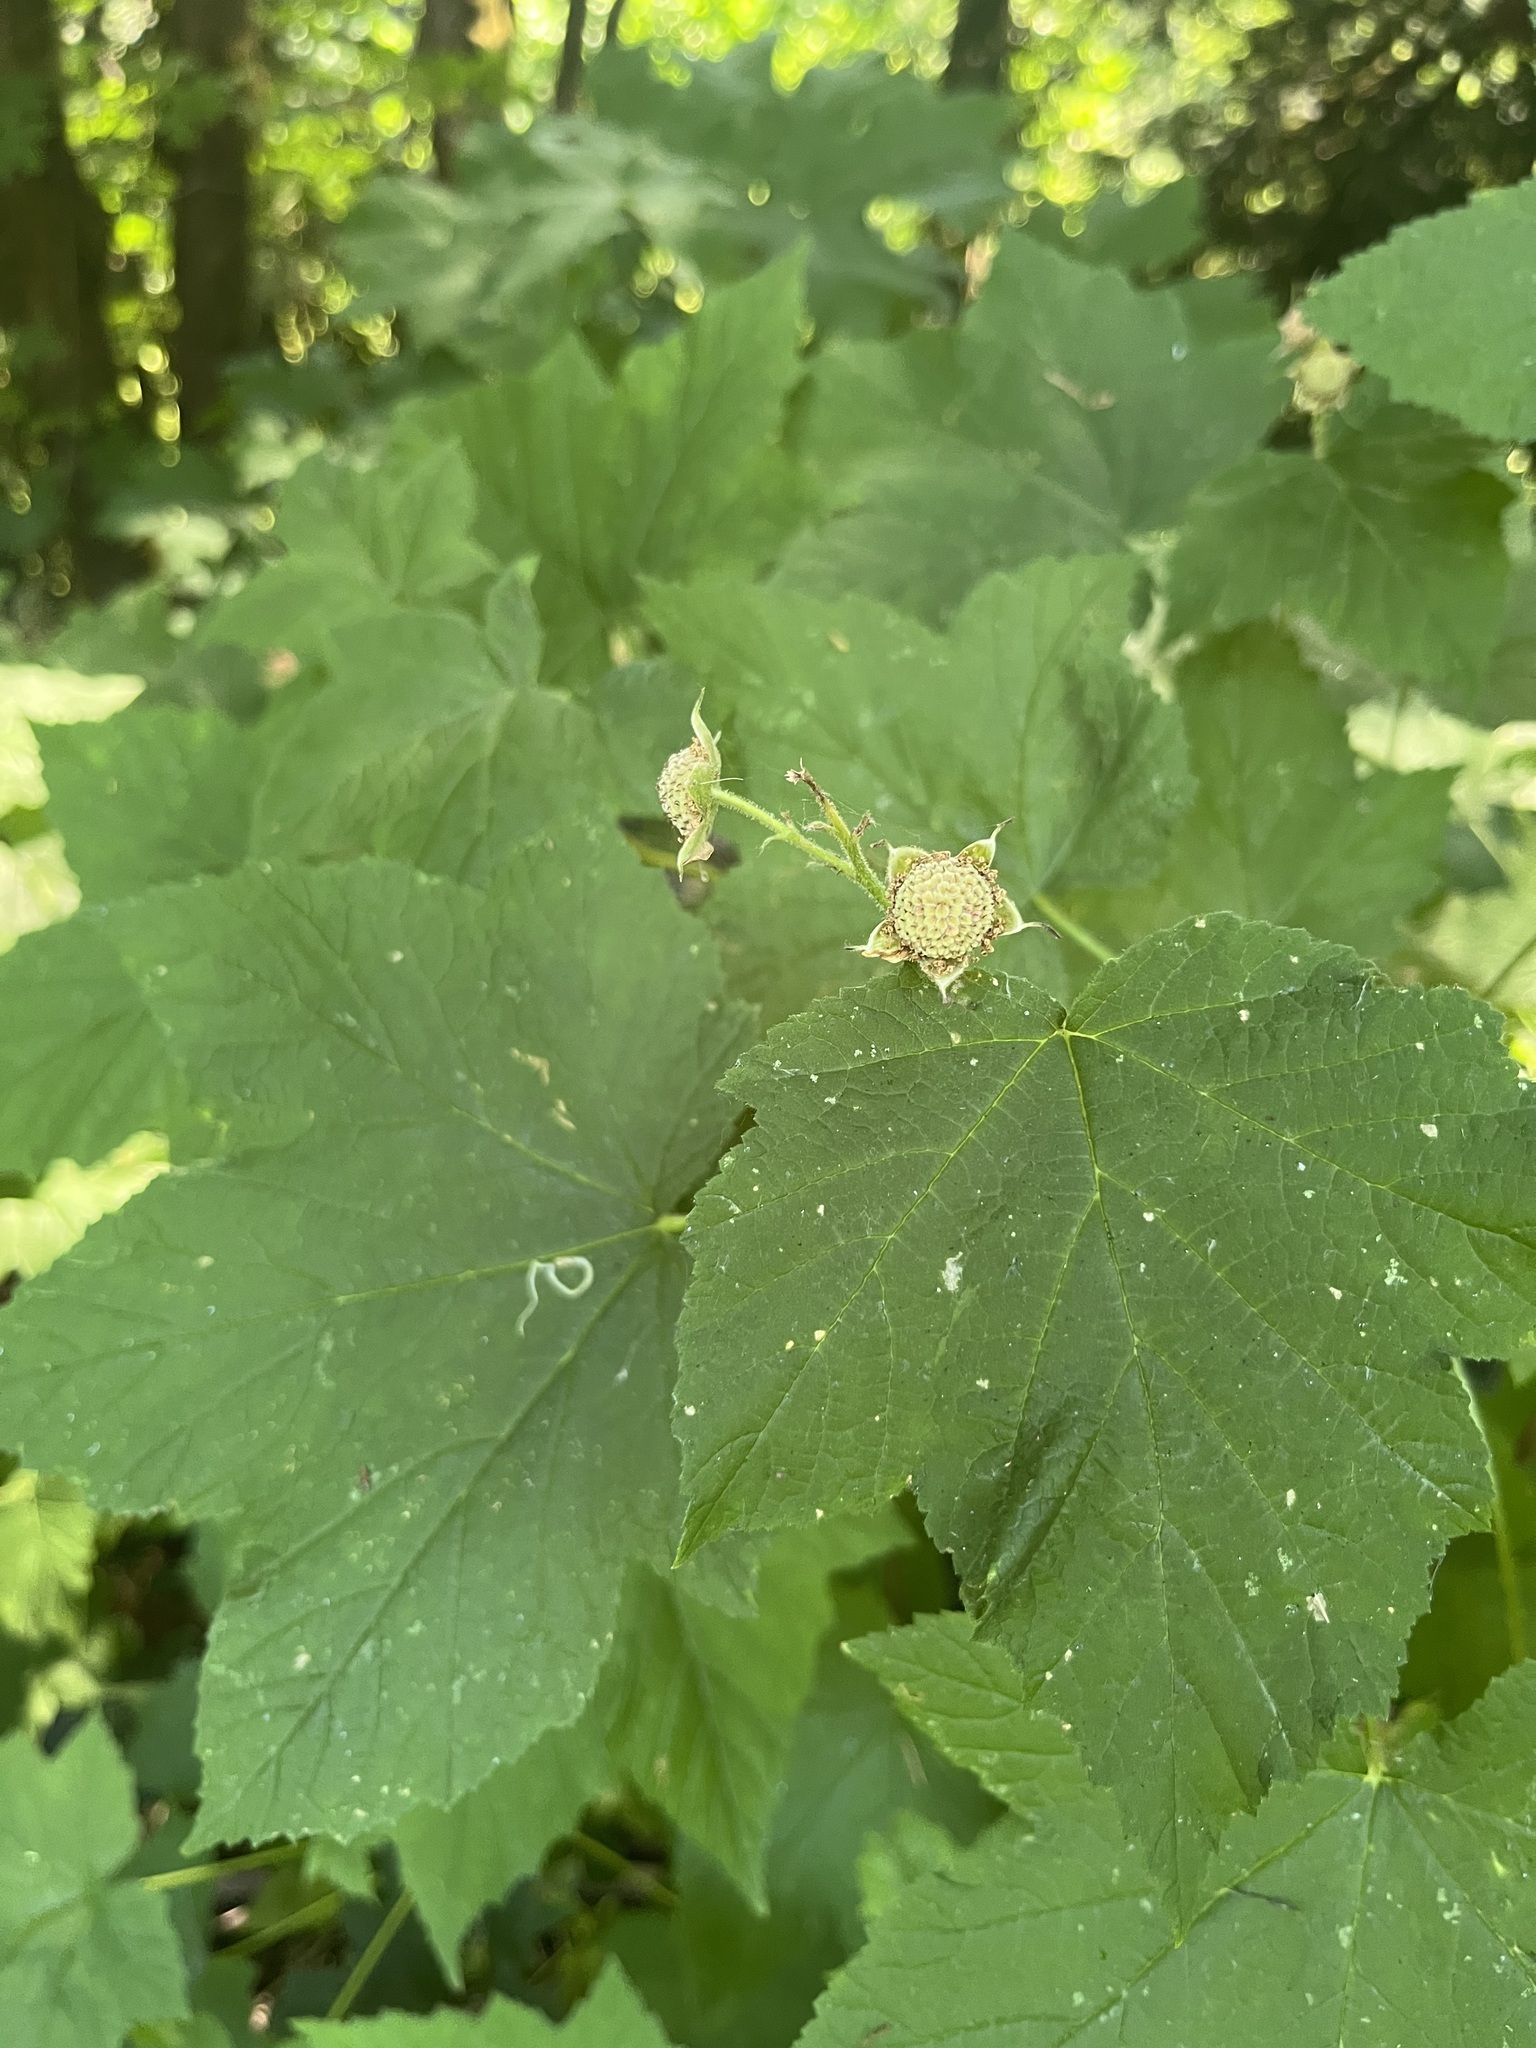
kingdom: Plantae
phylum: Tracheophyta
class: Magnoliopsida
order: Rosales
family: Rosaceae
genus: Rubus
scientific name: Rubus parviflorus
